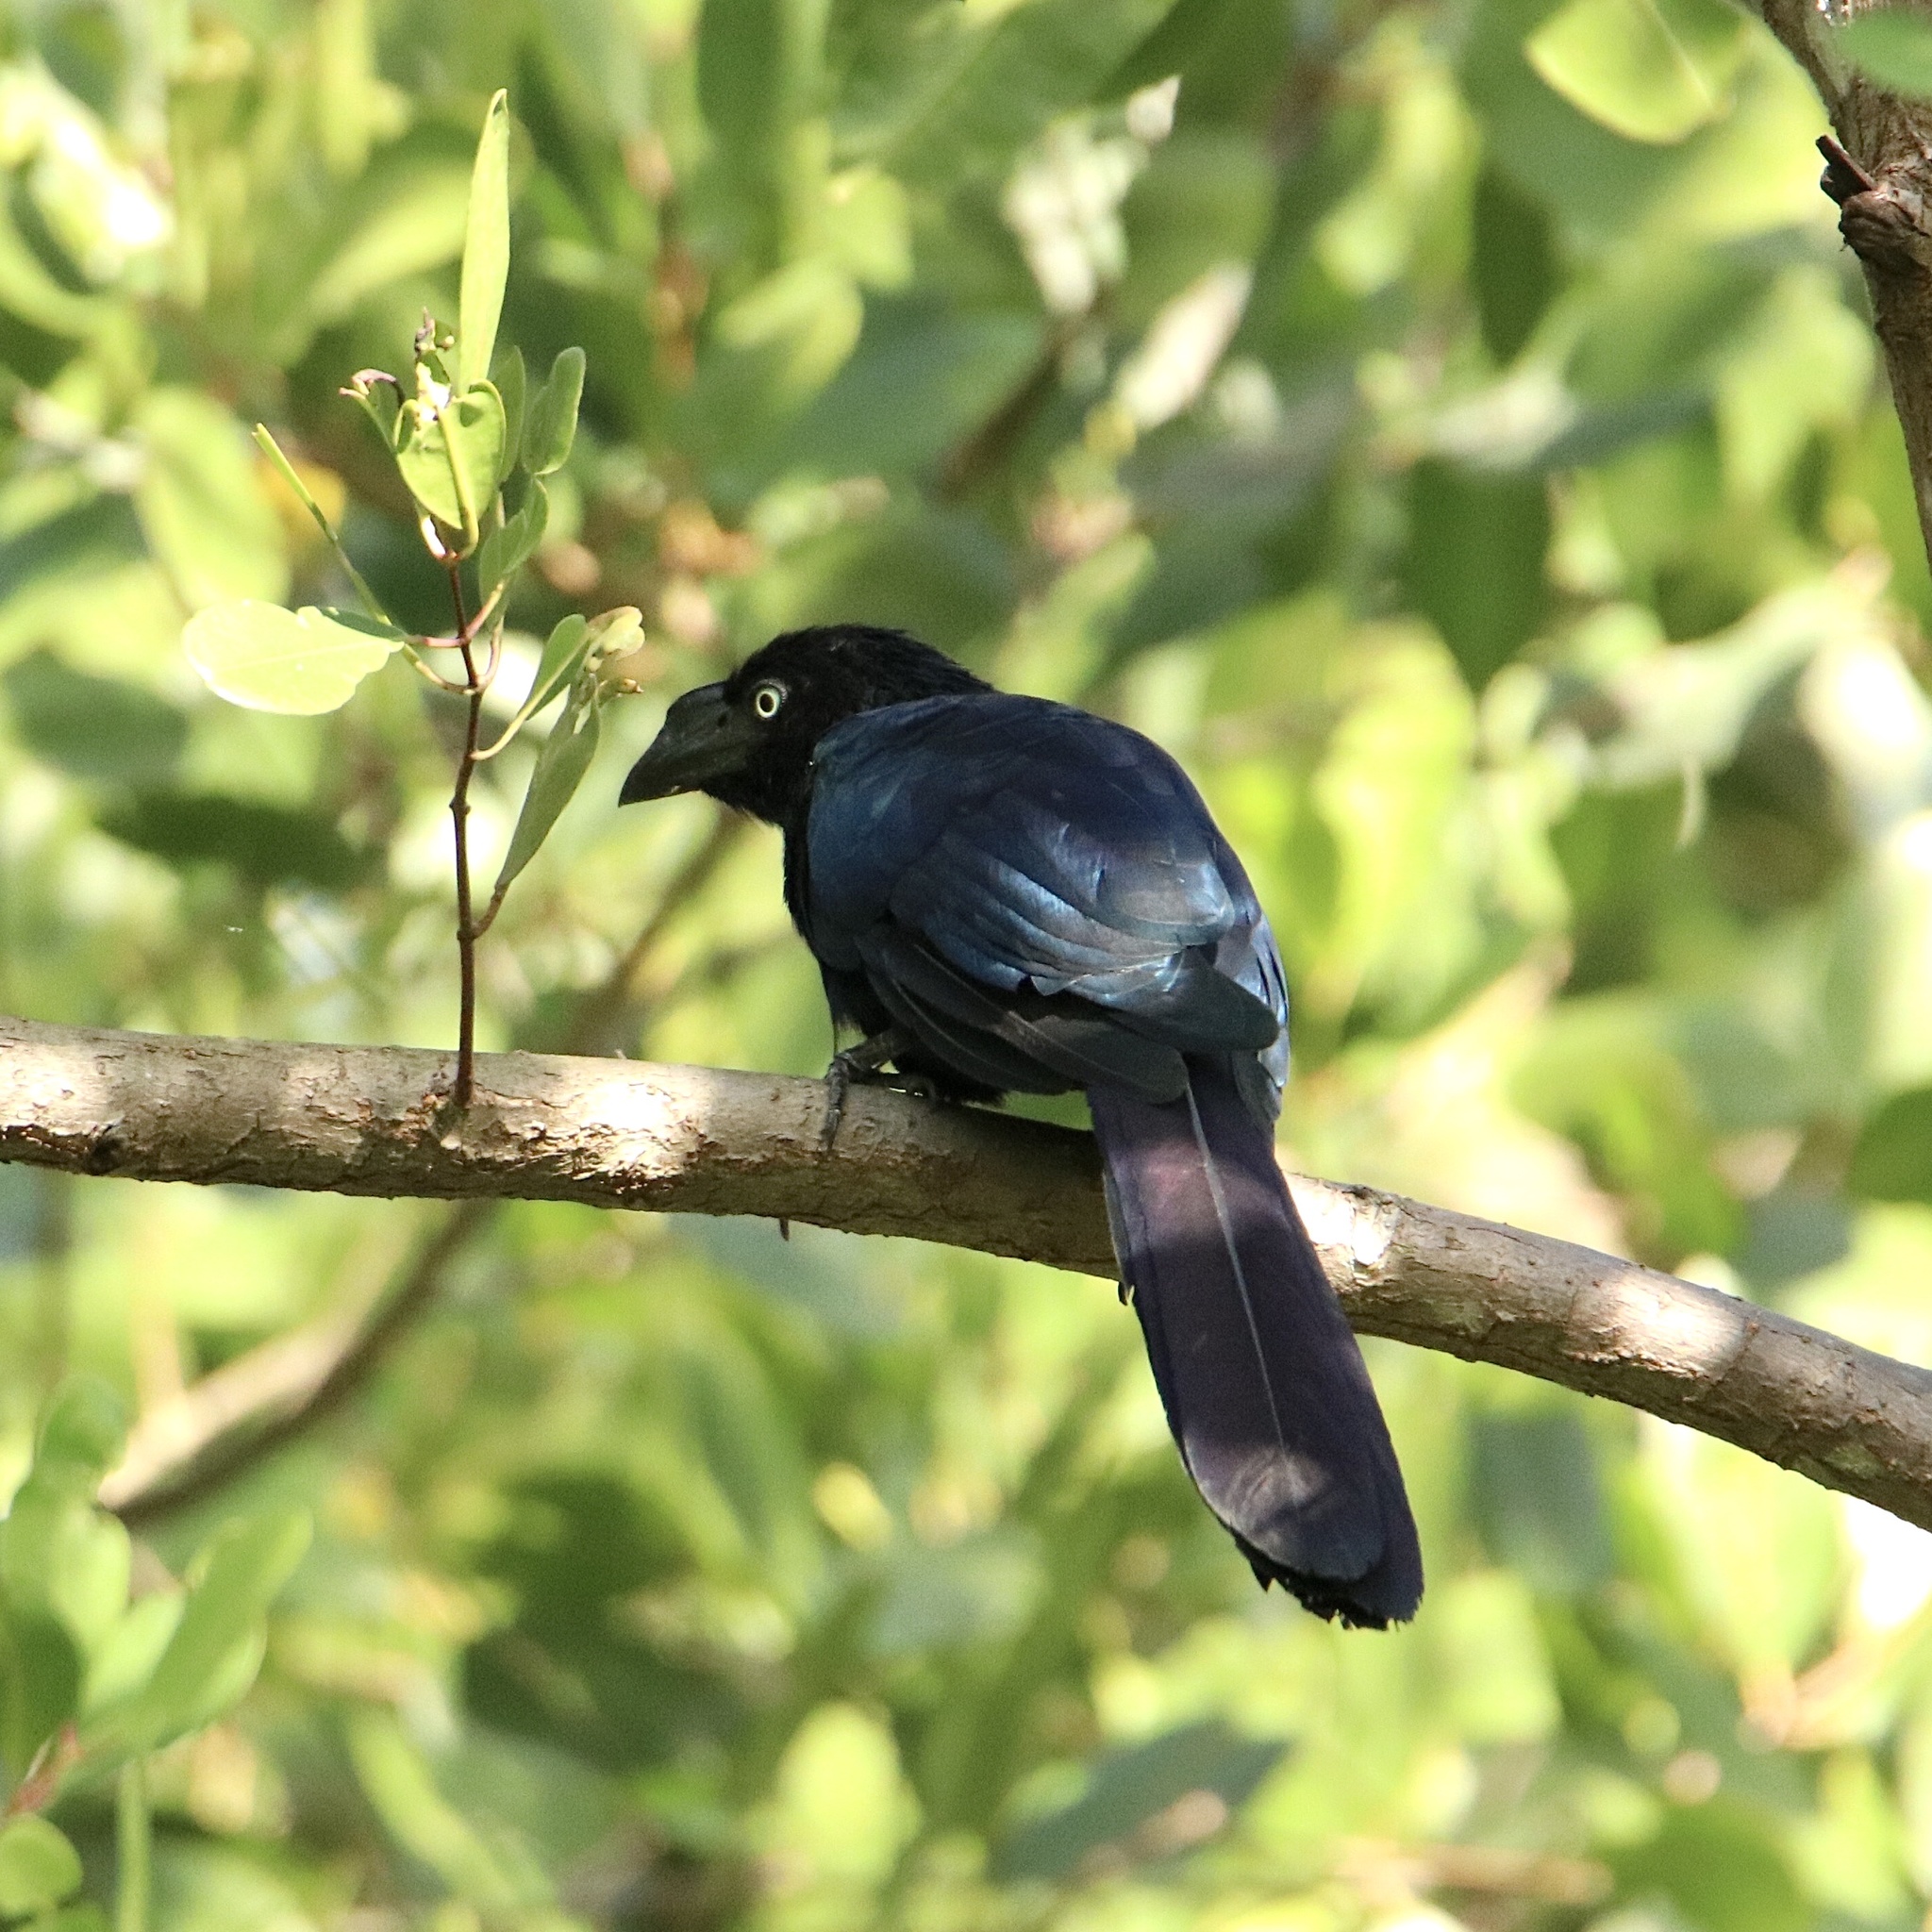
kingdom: Animalia
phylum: Chordata
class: Aves
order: Cuculiformes
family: Cuculidae
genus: Crotophaga
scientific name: Crotophaga major
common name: Greater ani
